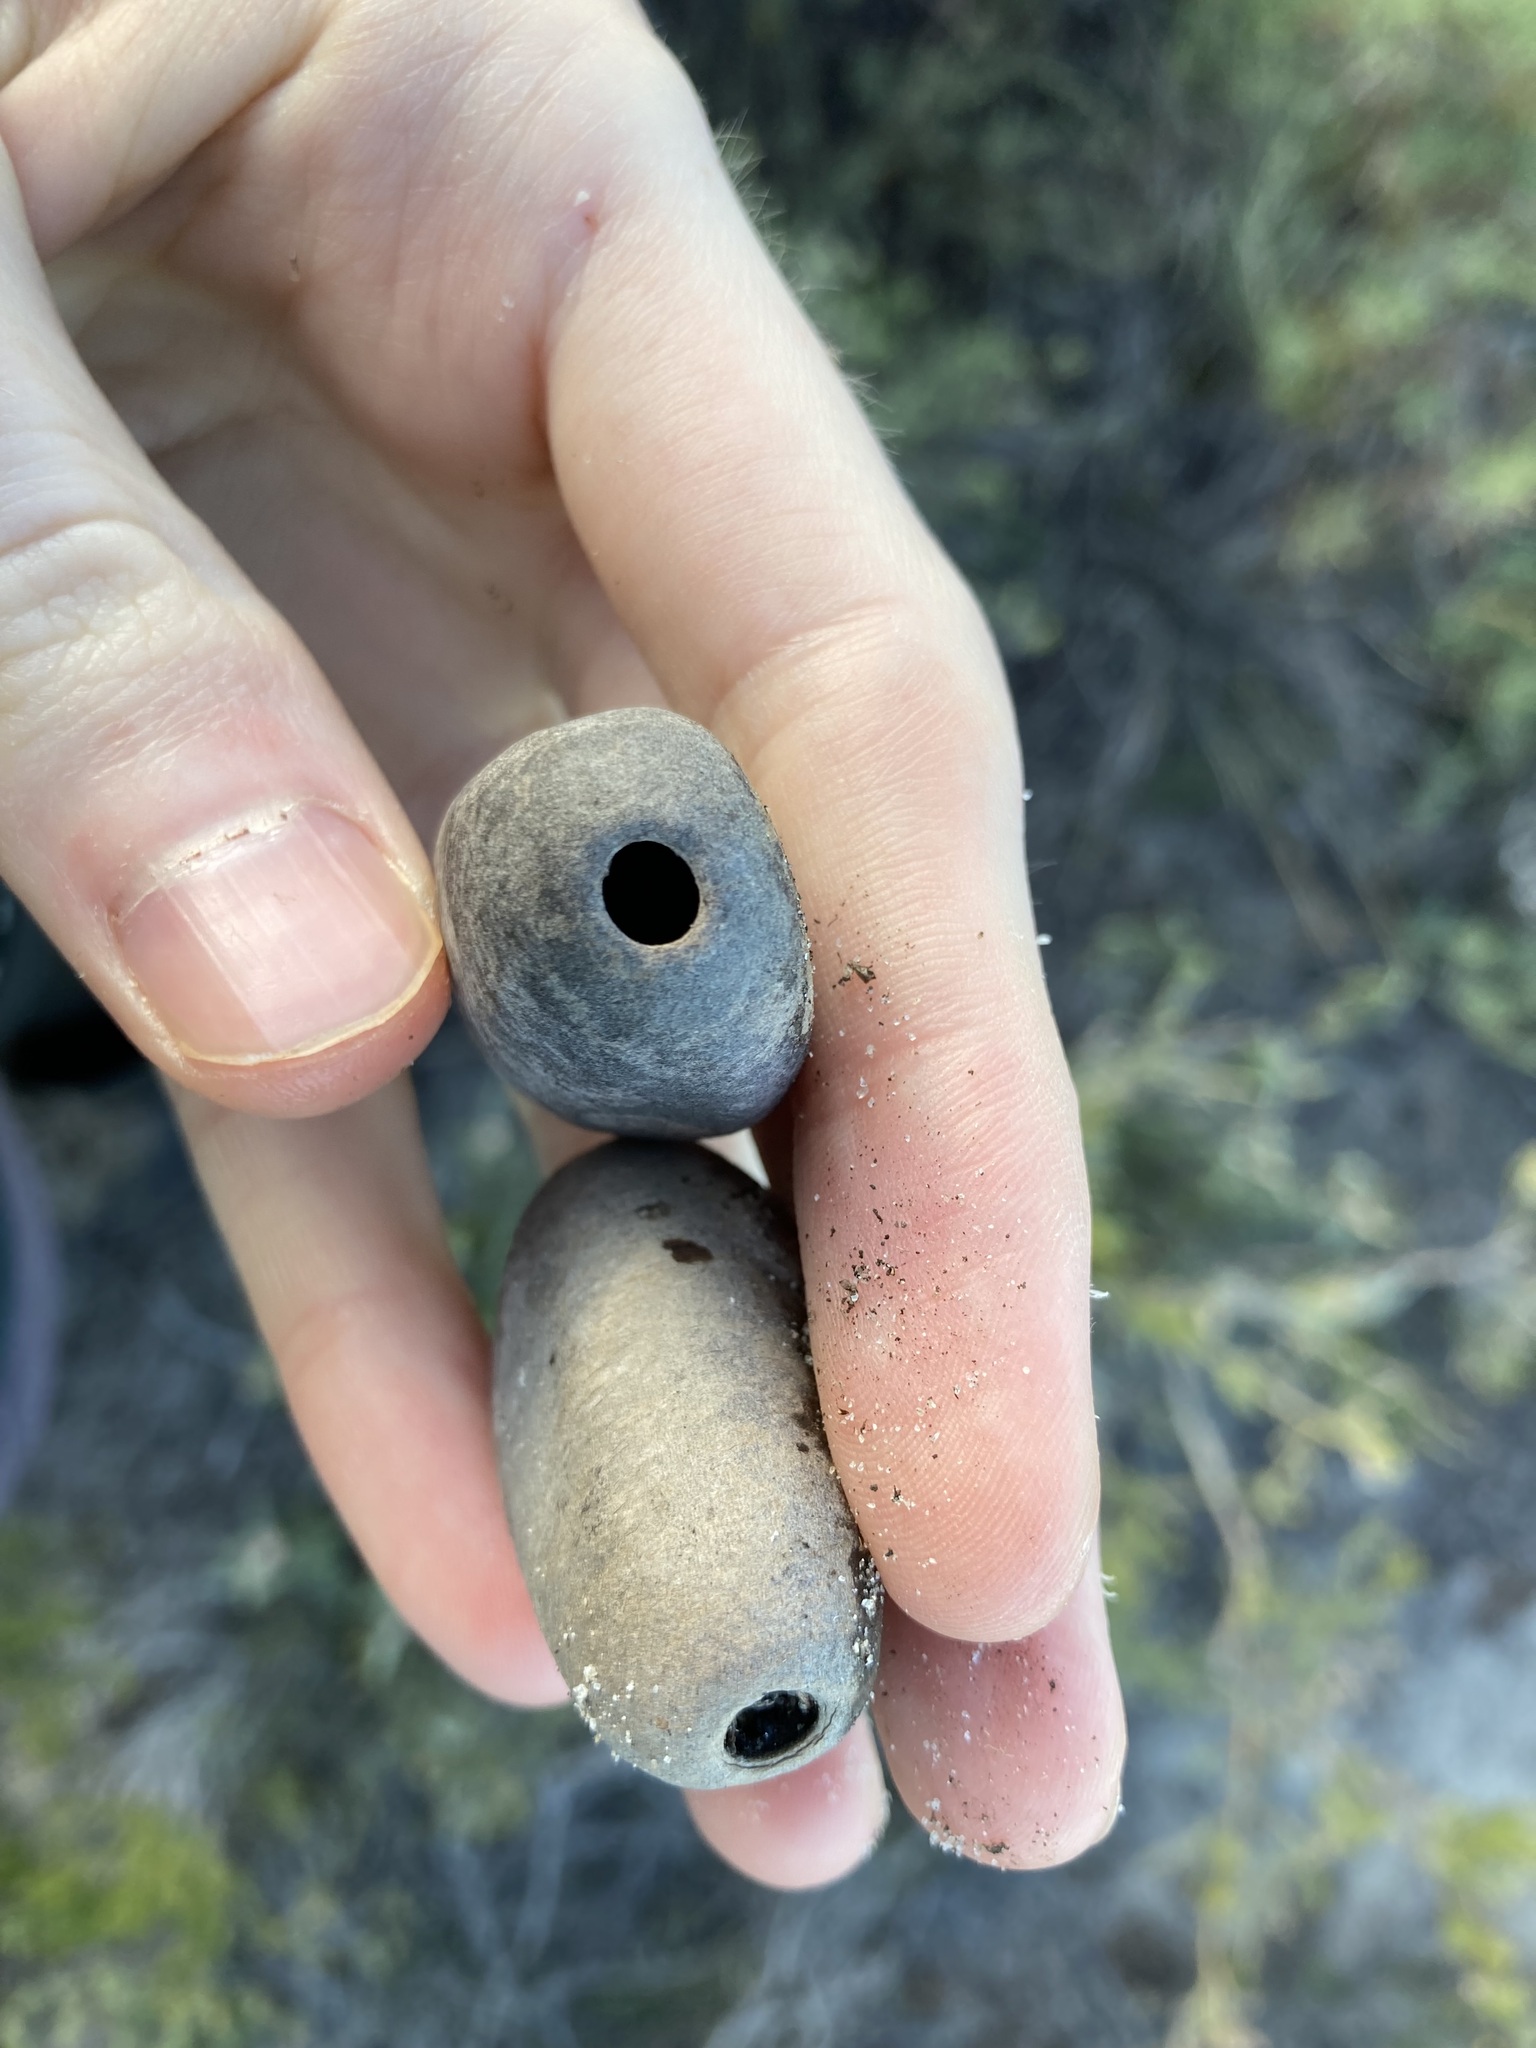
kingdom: Plantae
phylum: Tracheophyta
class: Cycadopsida
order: Cycadales
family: Zamiaceae
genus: Macrozamia
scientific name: Macrozamia fraseri
